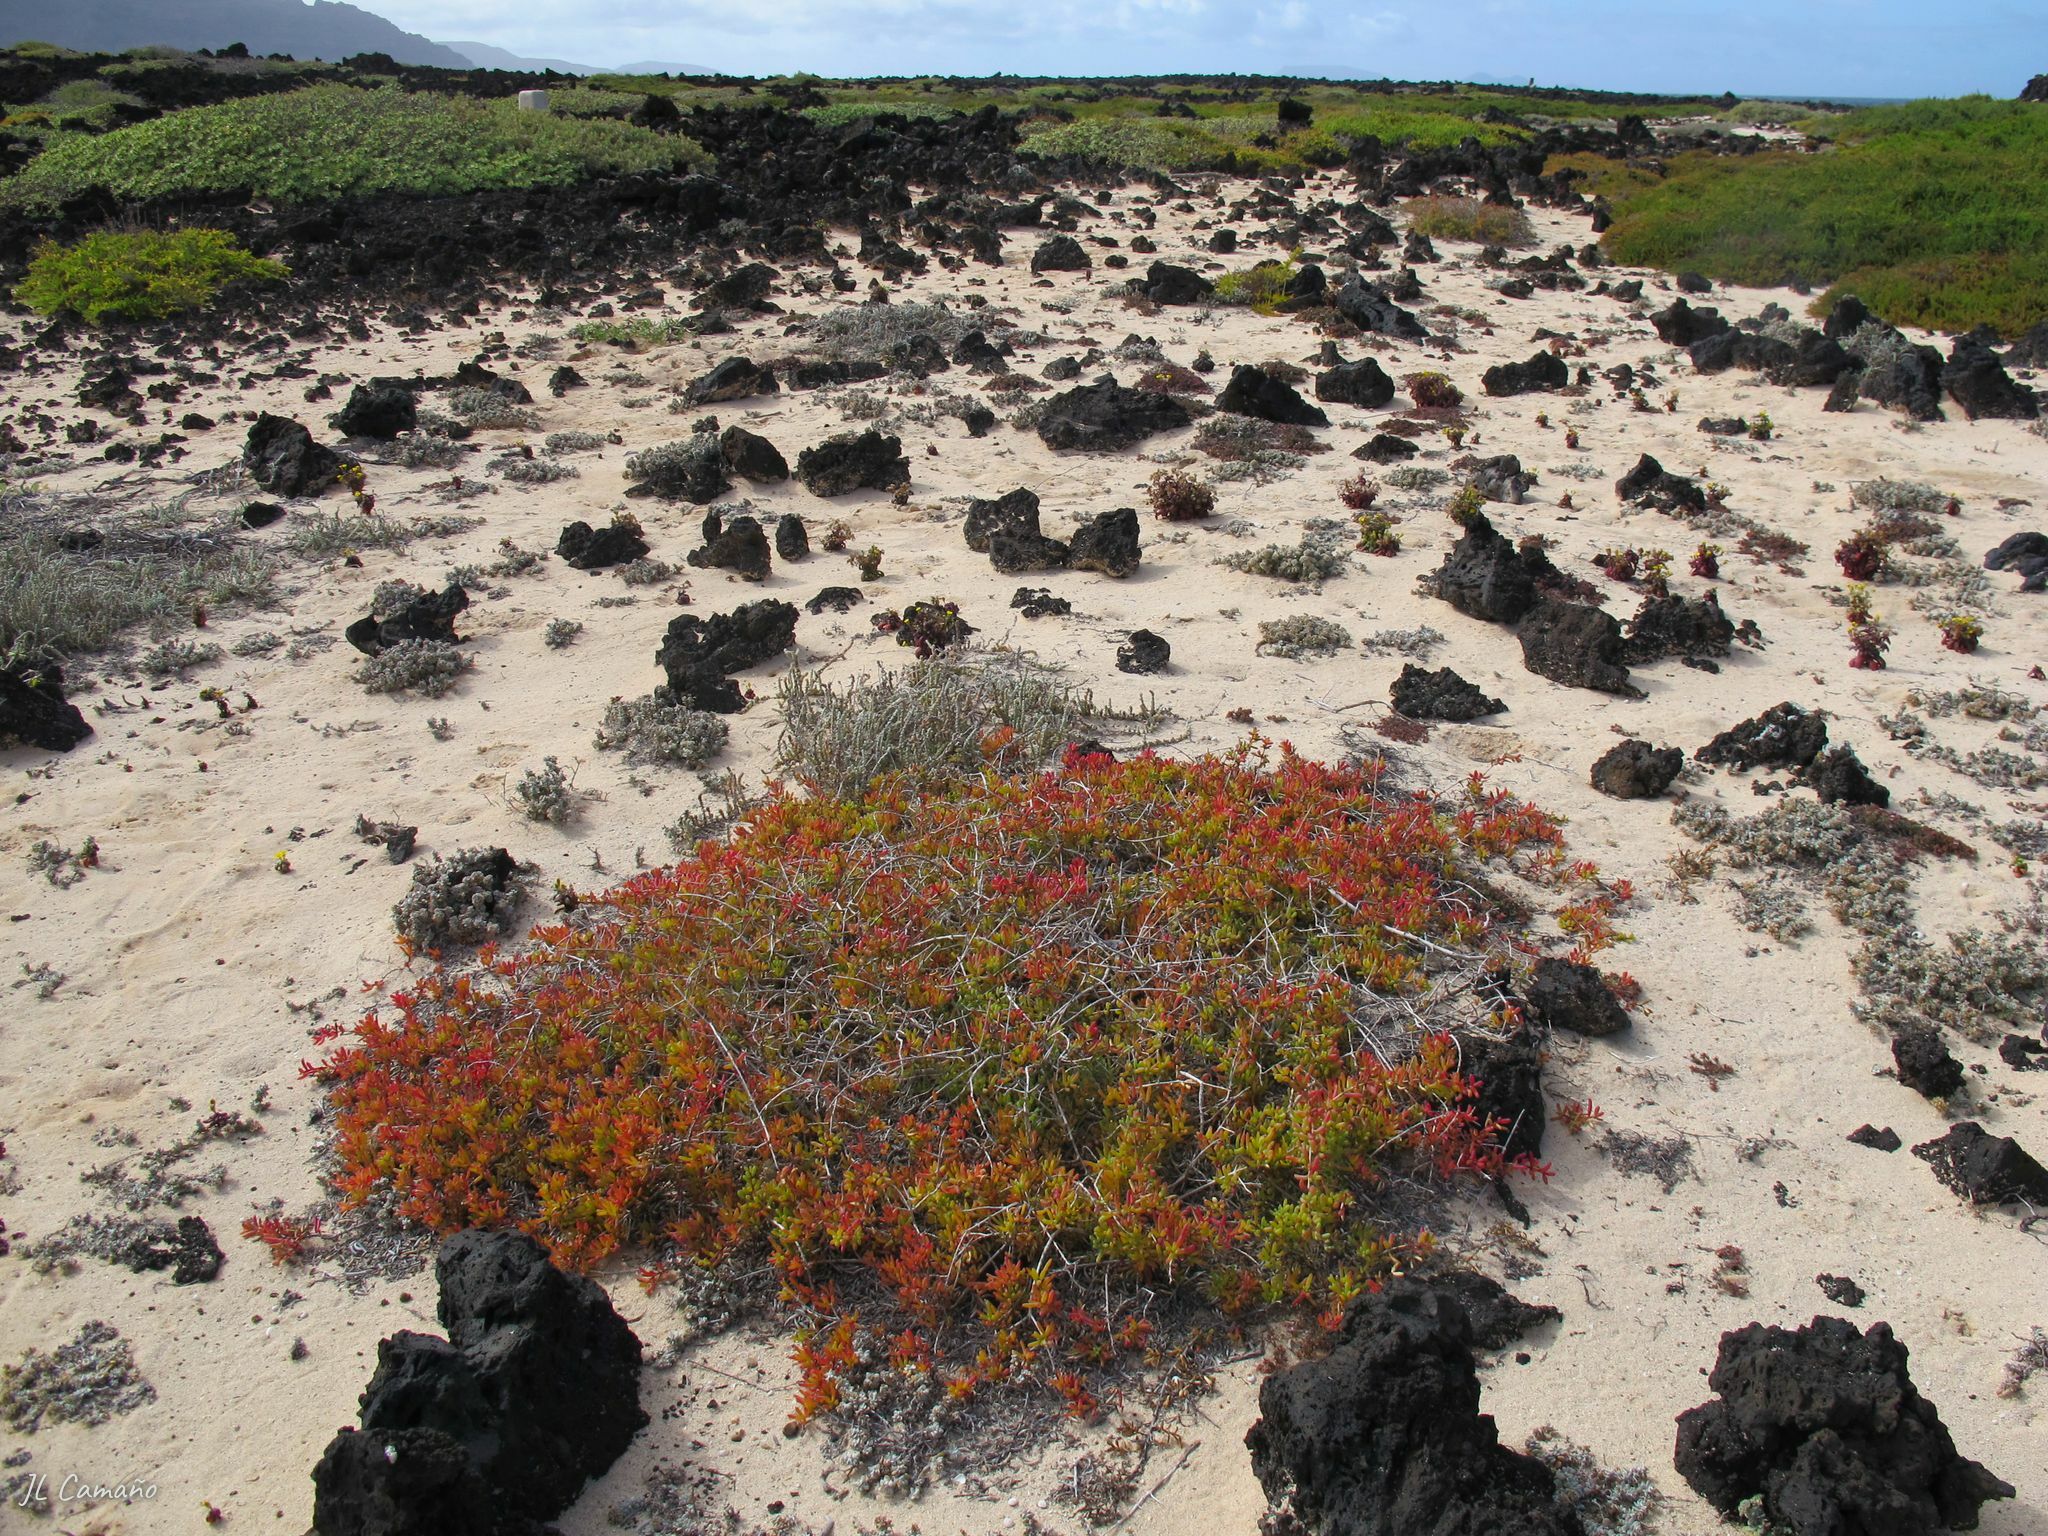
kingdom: Plantae
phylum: Tracheophyta
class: Magnoliopsida
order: Caryophyllales
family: Amaranthaceae
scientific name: Amaranthaceae
